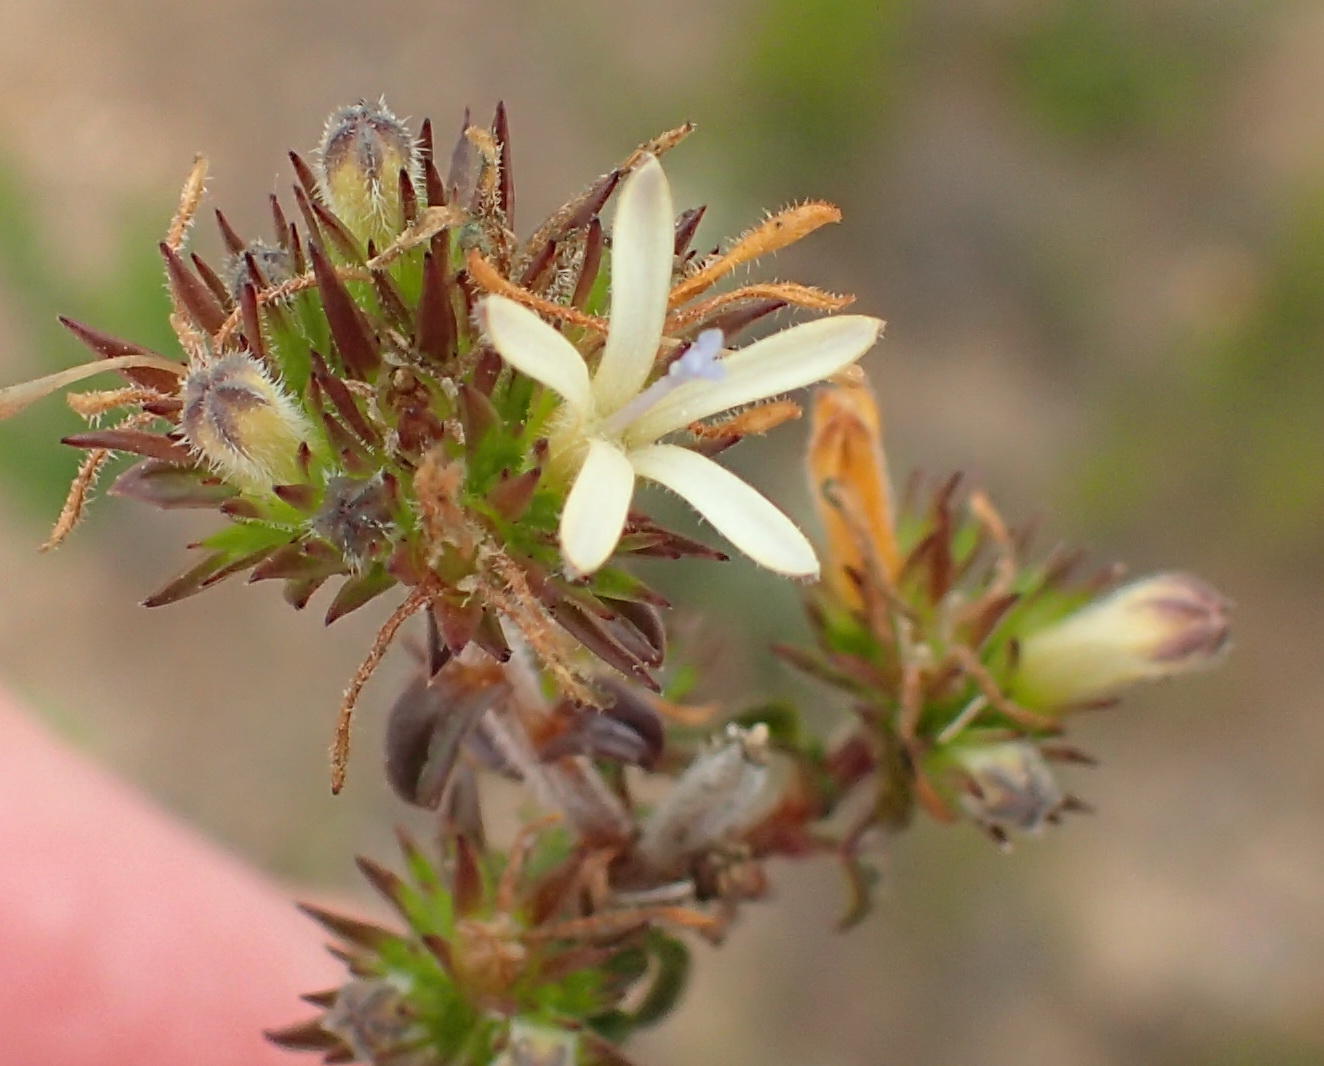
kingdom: Plantae
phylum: Tracheophyta
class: Magnoliopsida
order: Asterales
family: Campanulaceae
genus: Wahlenbergia
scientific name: Wahlenbergia desmantha
